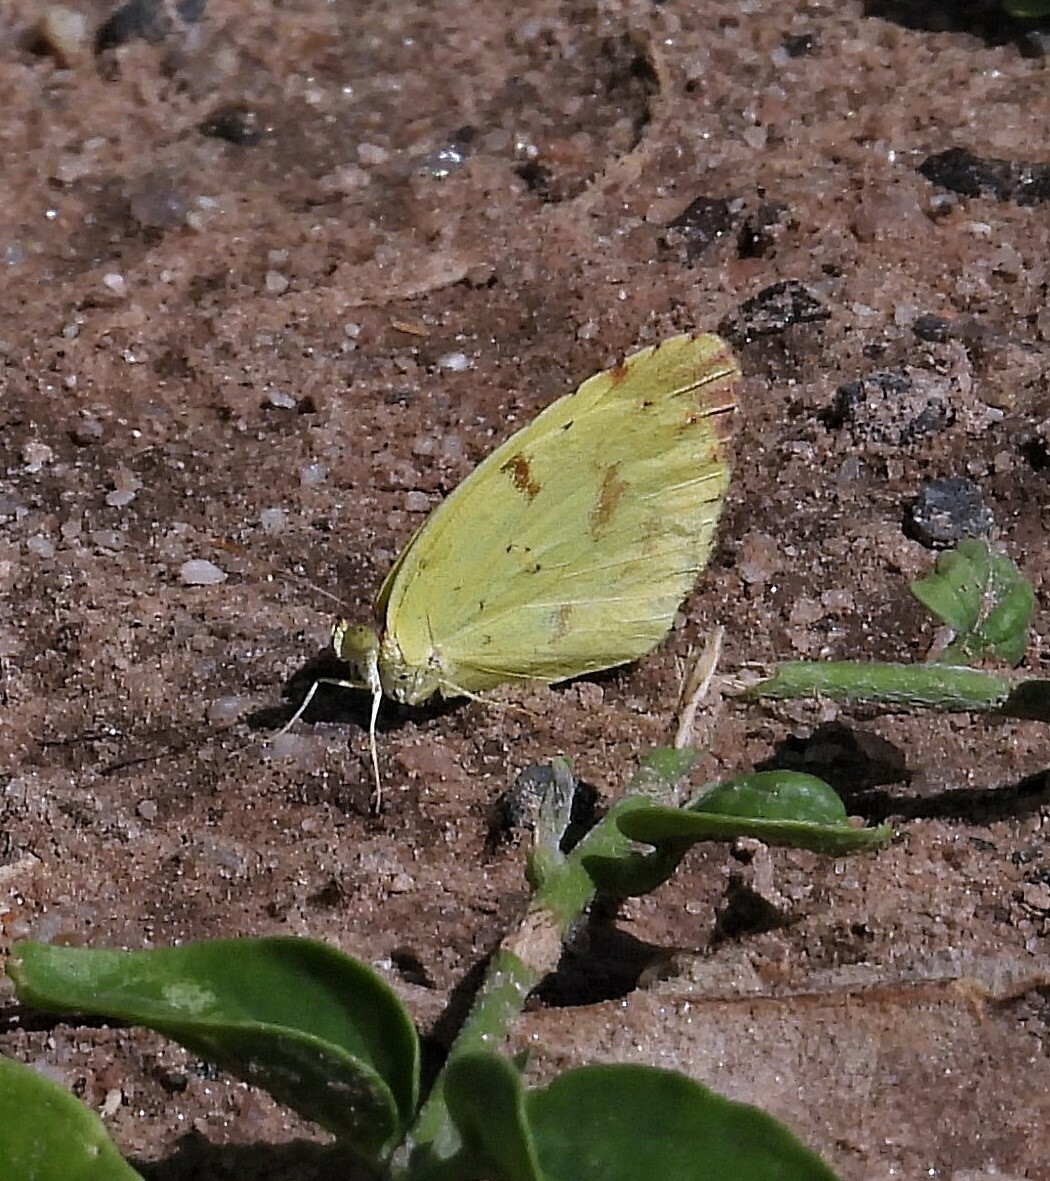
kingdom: Animalia
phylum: Arthropoda
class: Insecta
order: Lepidoptera
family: Pieridae
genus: Teriocolias
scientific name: Teriocolias
